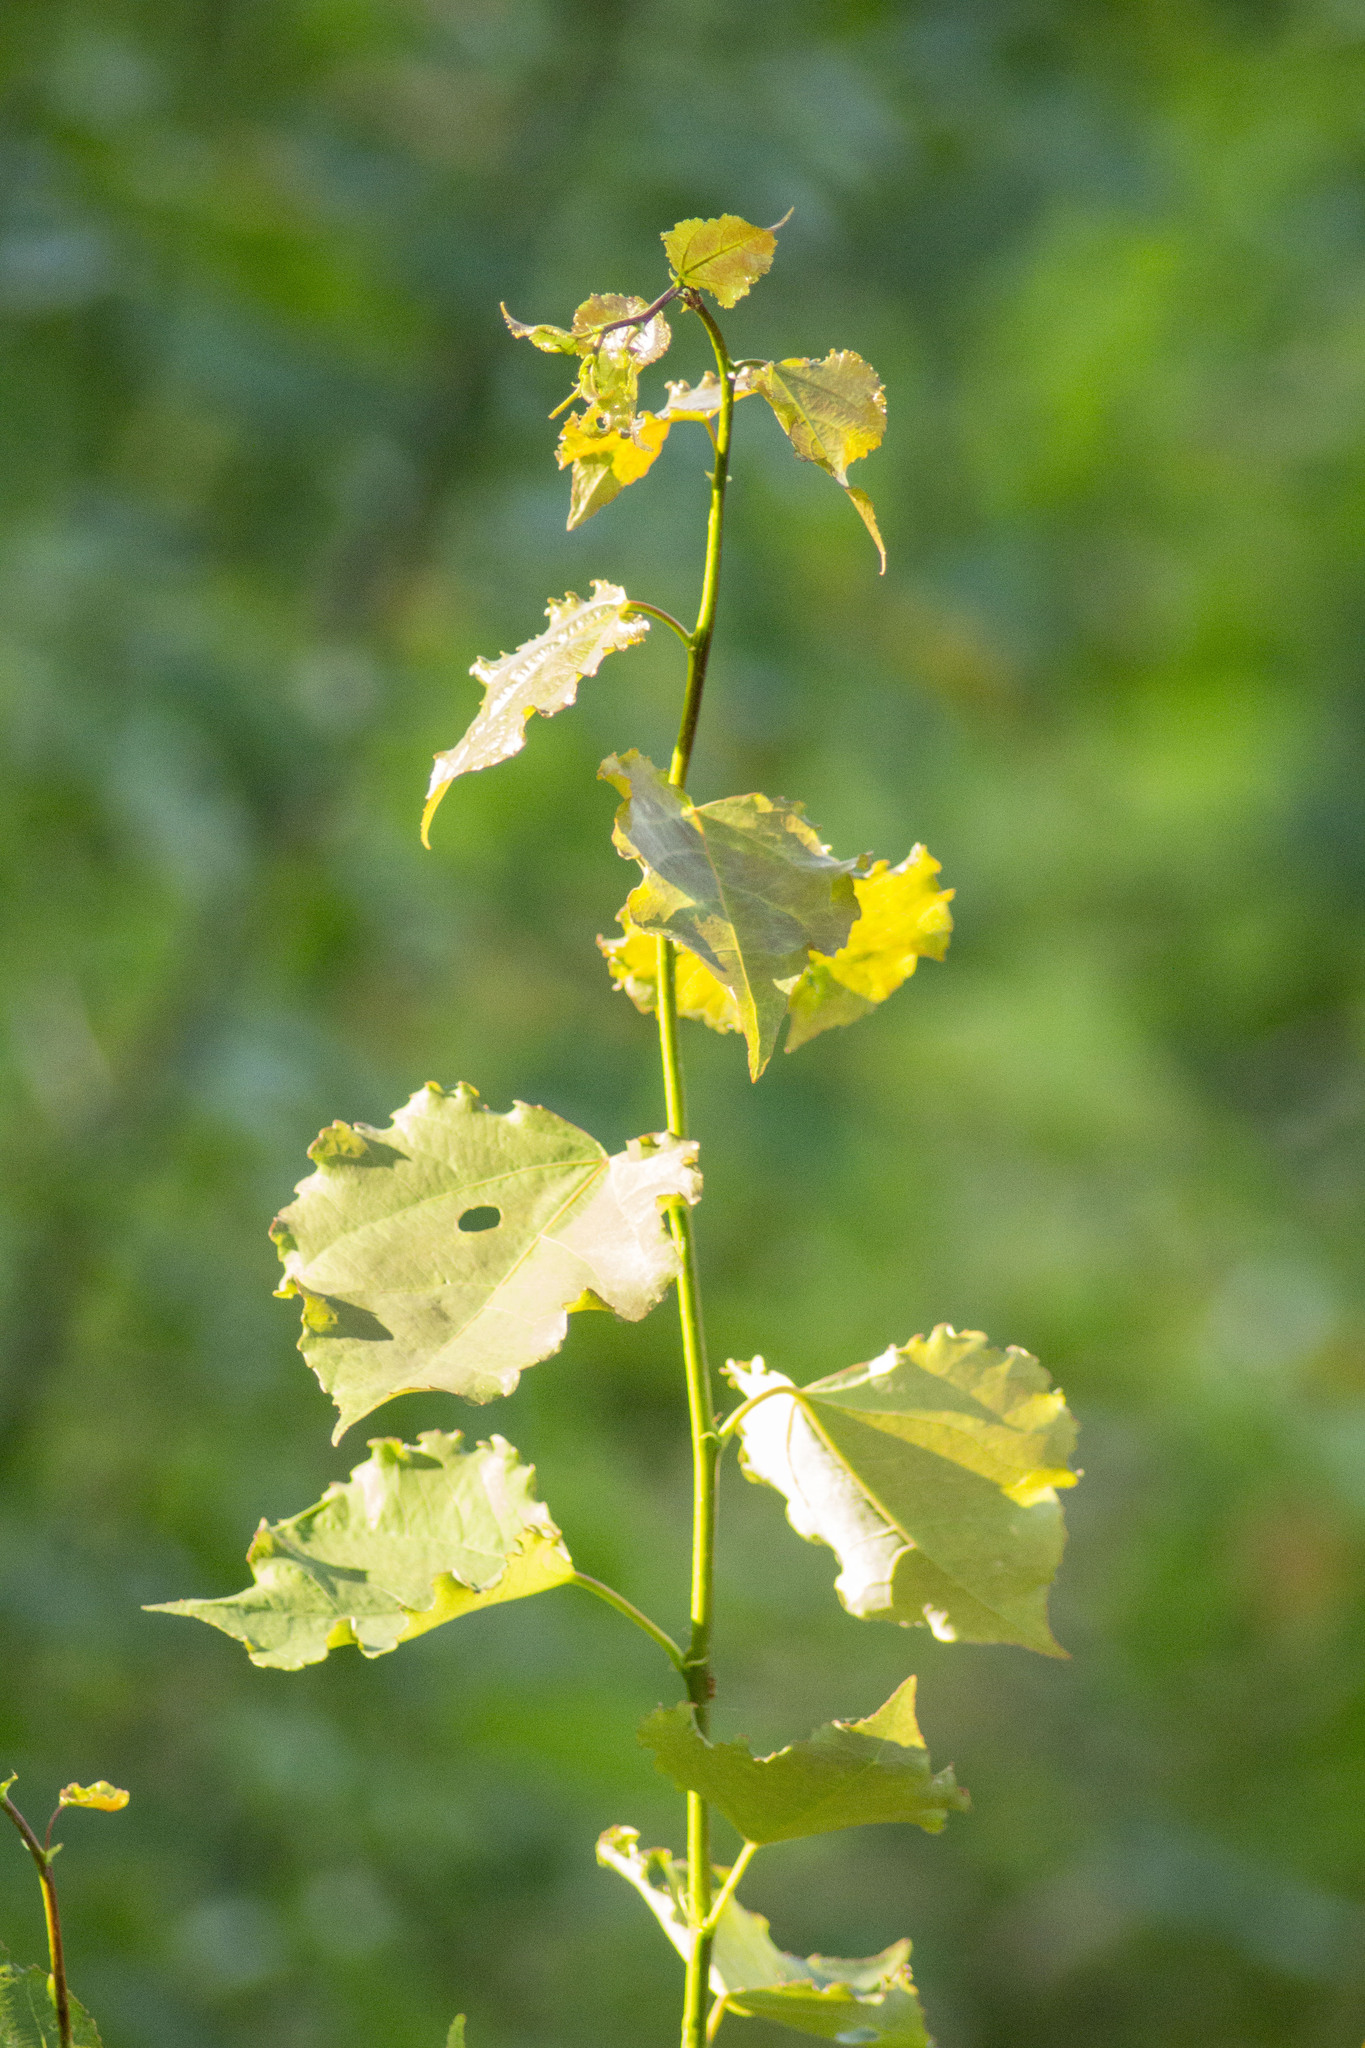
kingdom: Plantae
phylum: Tracheophyta
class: Magnoliopsida
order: Malpighiales
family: Salicaceae
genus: Populus
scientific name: Populus tremula
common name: European aspen
